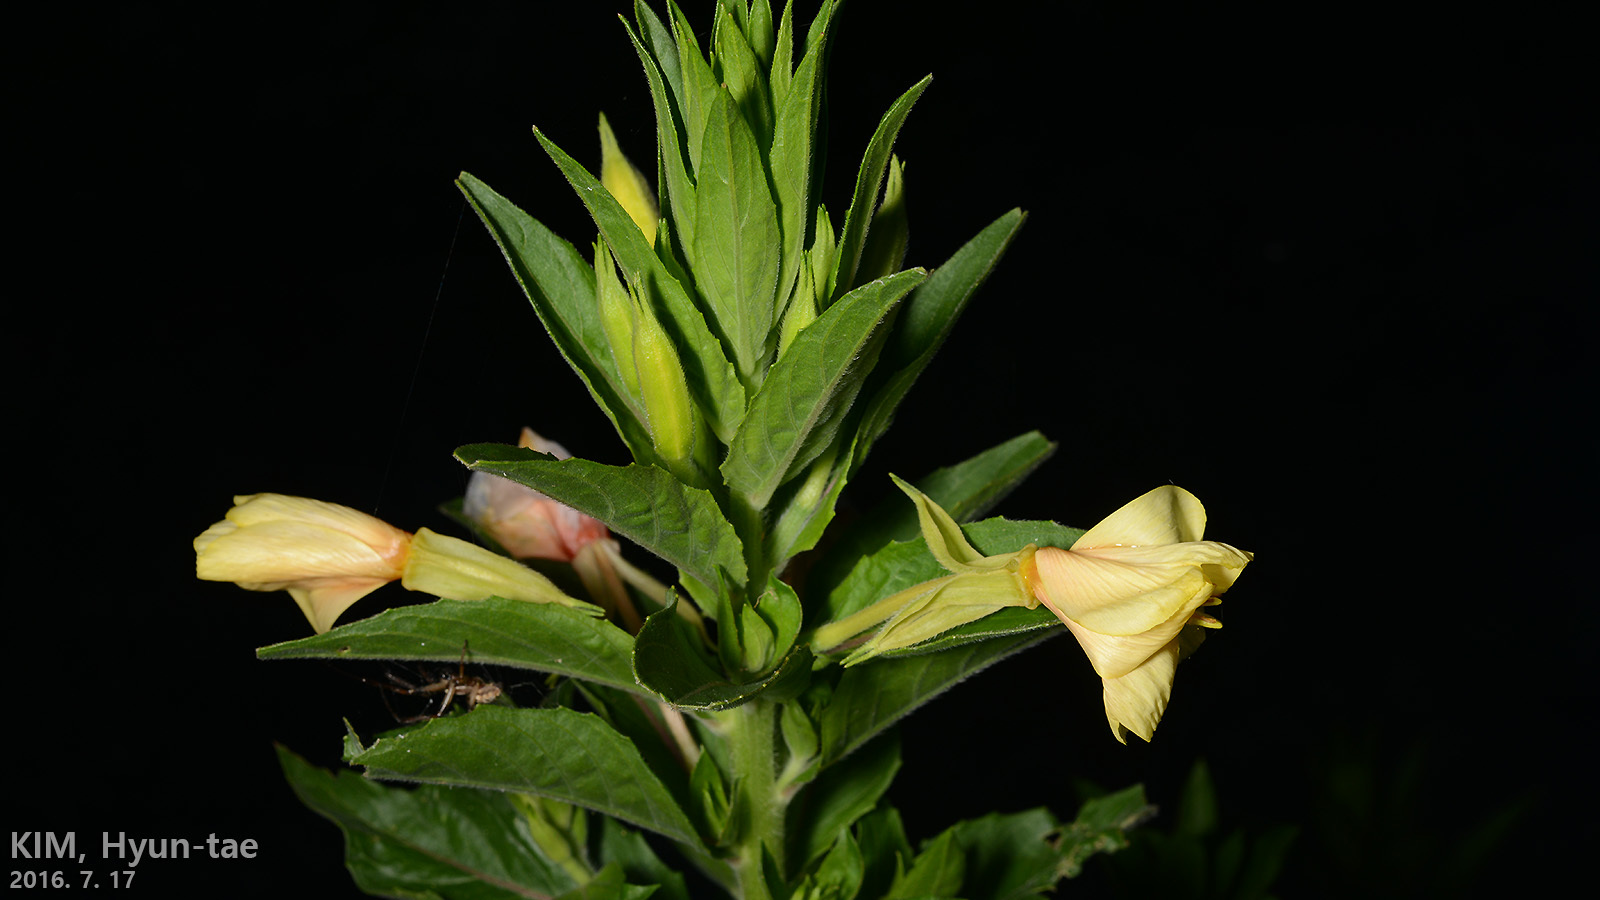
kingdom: Plantae
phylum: Tracheophyta
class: Magnoliopsida
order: Myrtales
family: Onagraceae
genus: Oenothera
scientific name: Oenothera biennis
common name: Common evening-primrose
